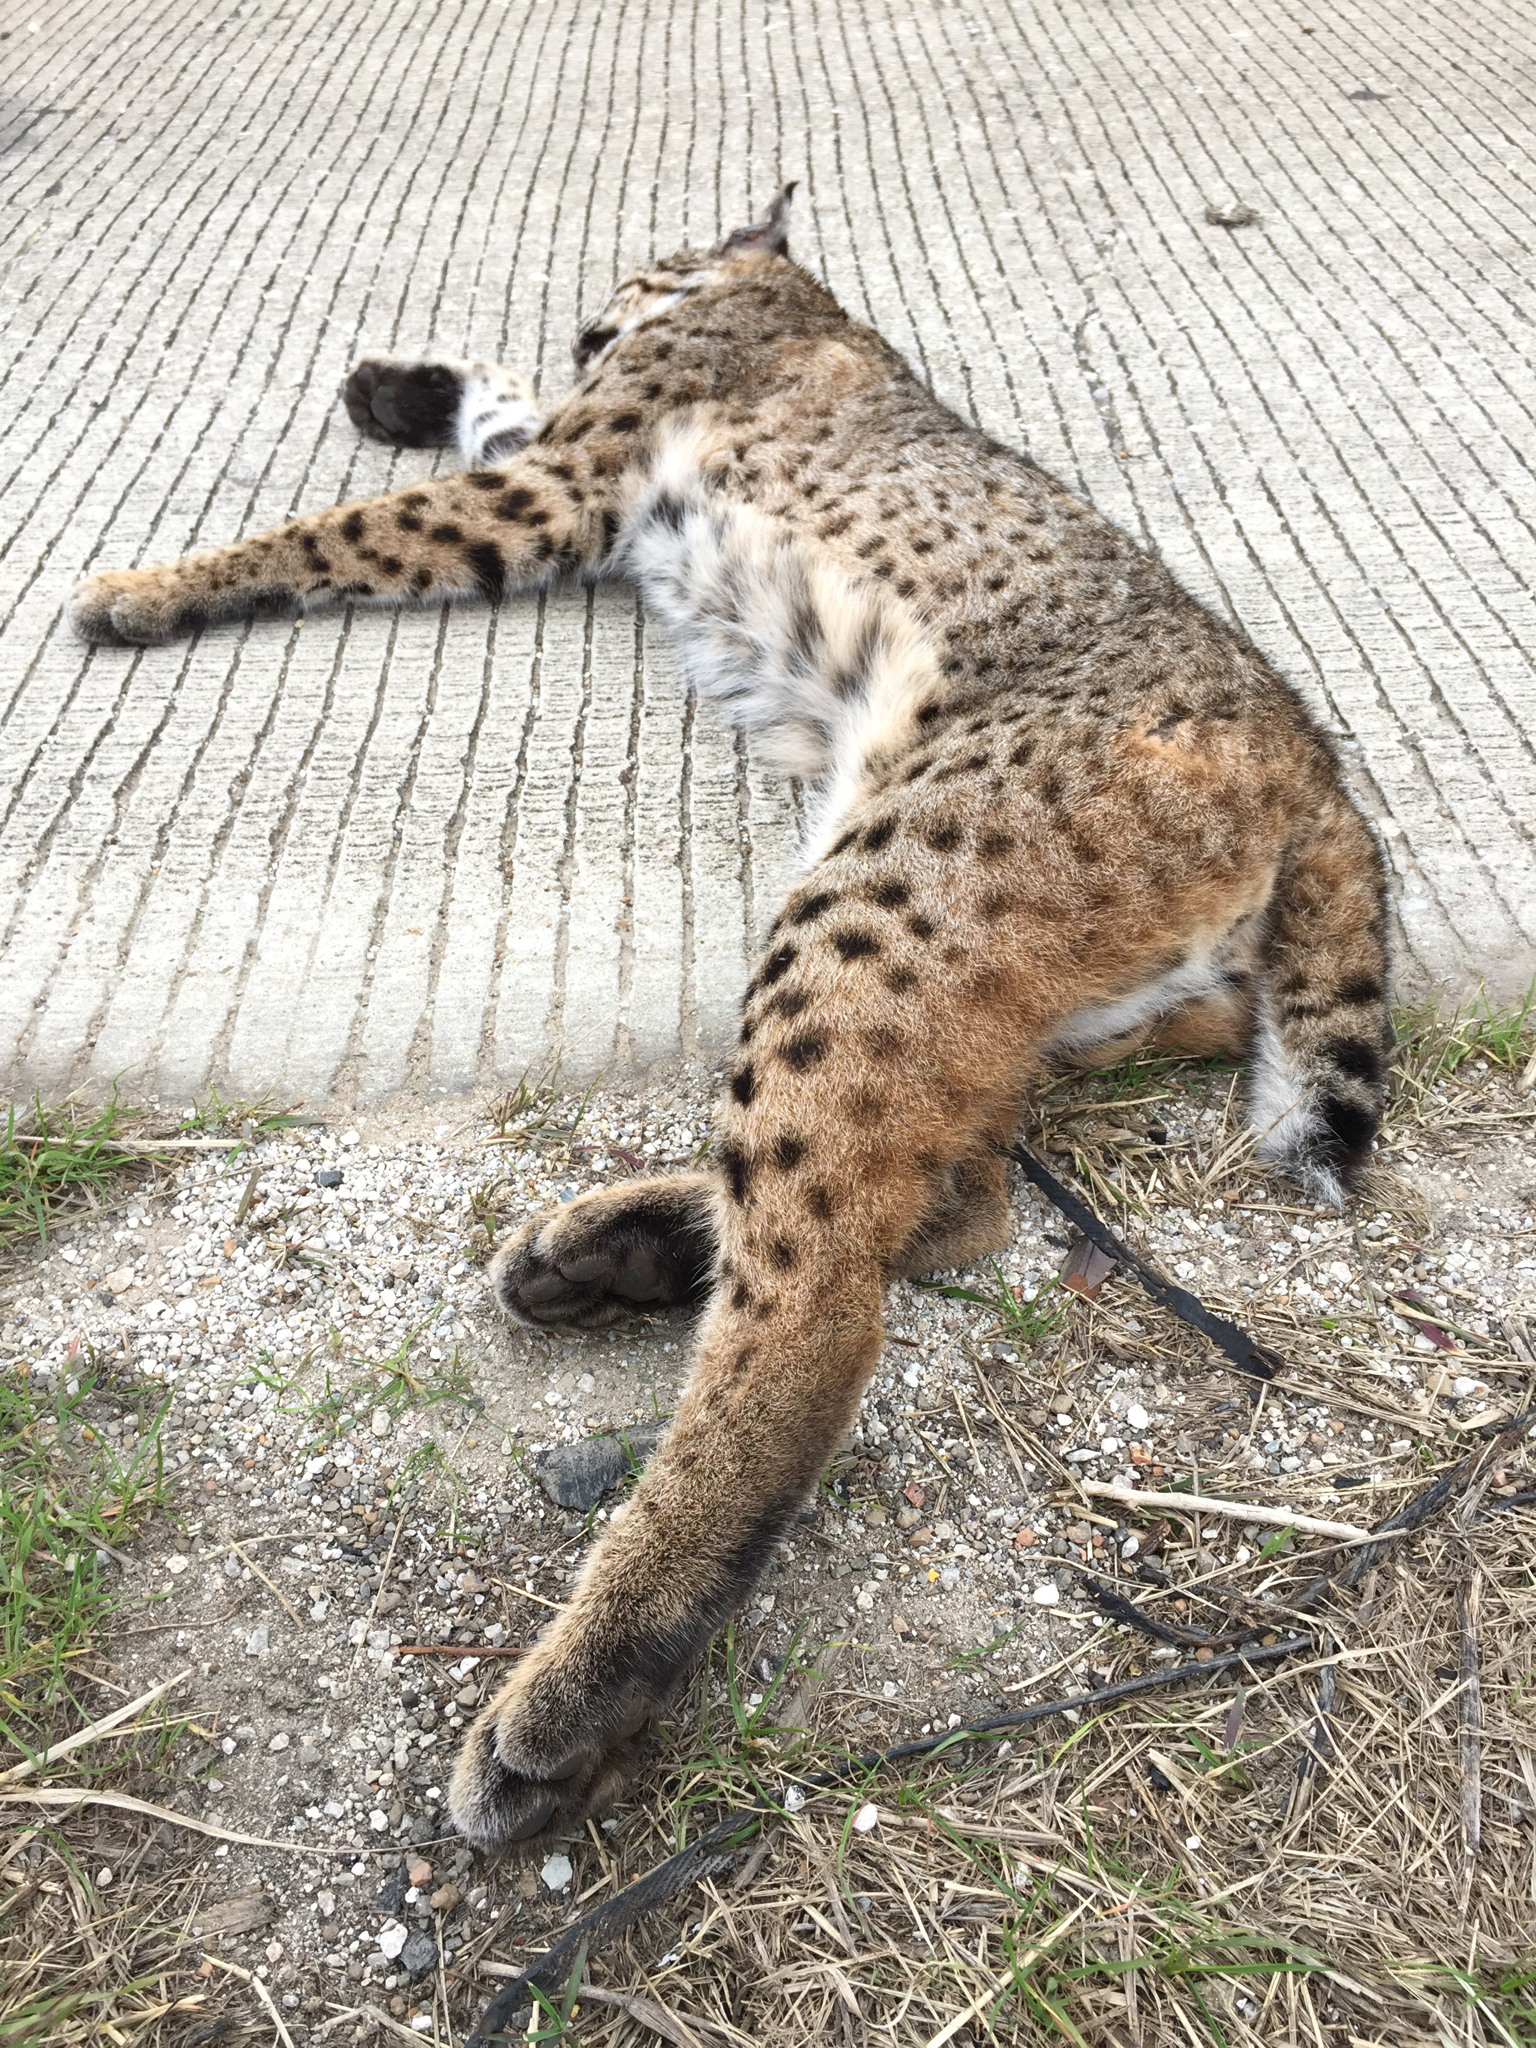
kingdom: Animalia
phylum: Chordata
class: Mammalia
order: Carnivora
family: Felidae
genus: Lynx
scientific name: Lynx rufus
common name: Bobcat
